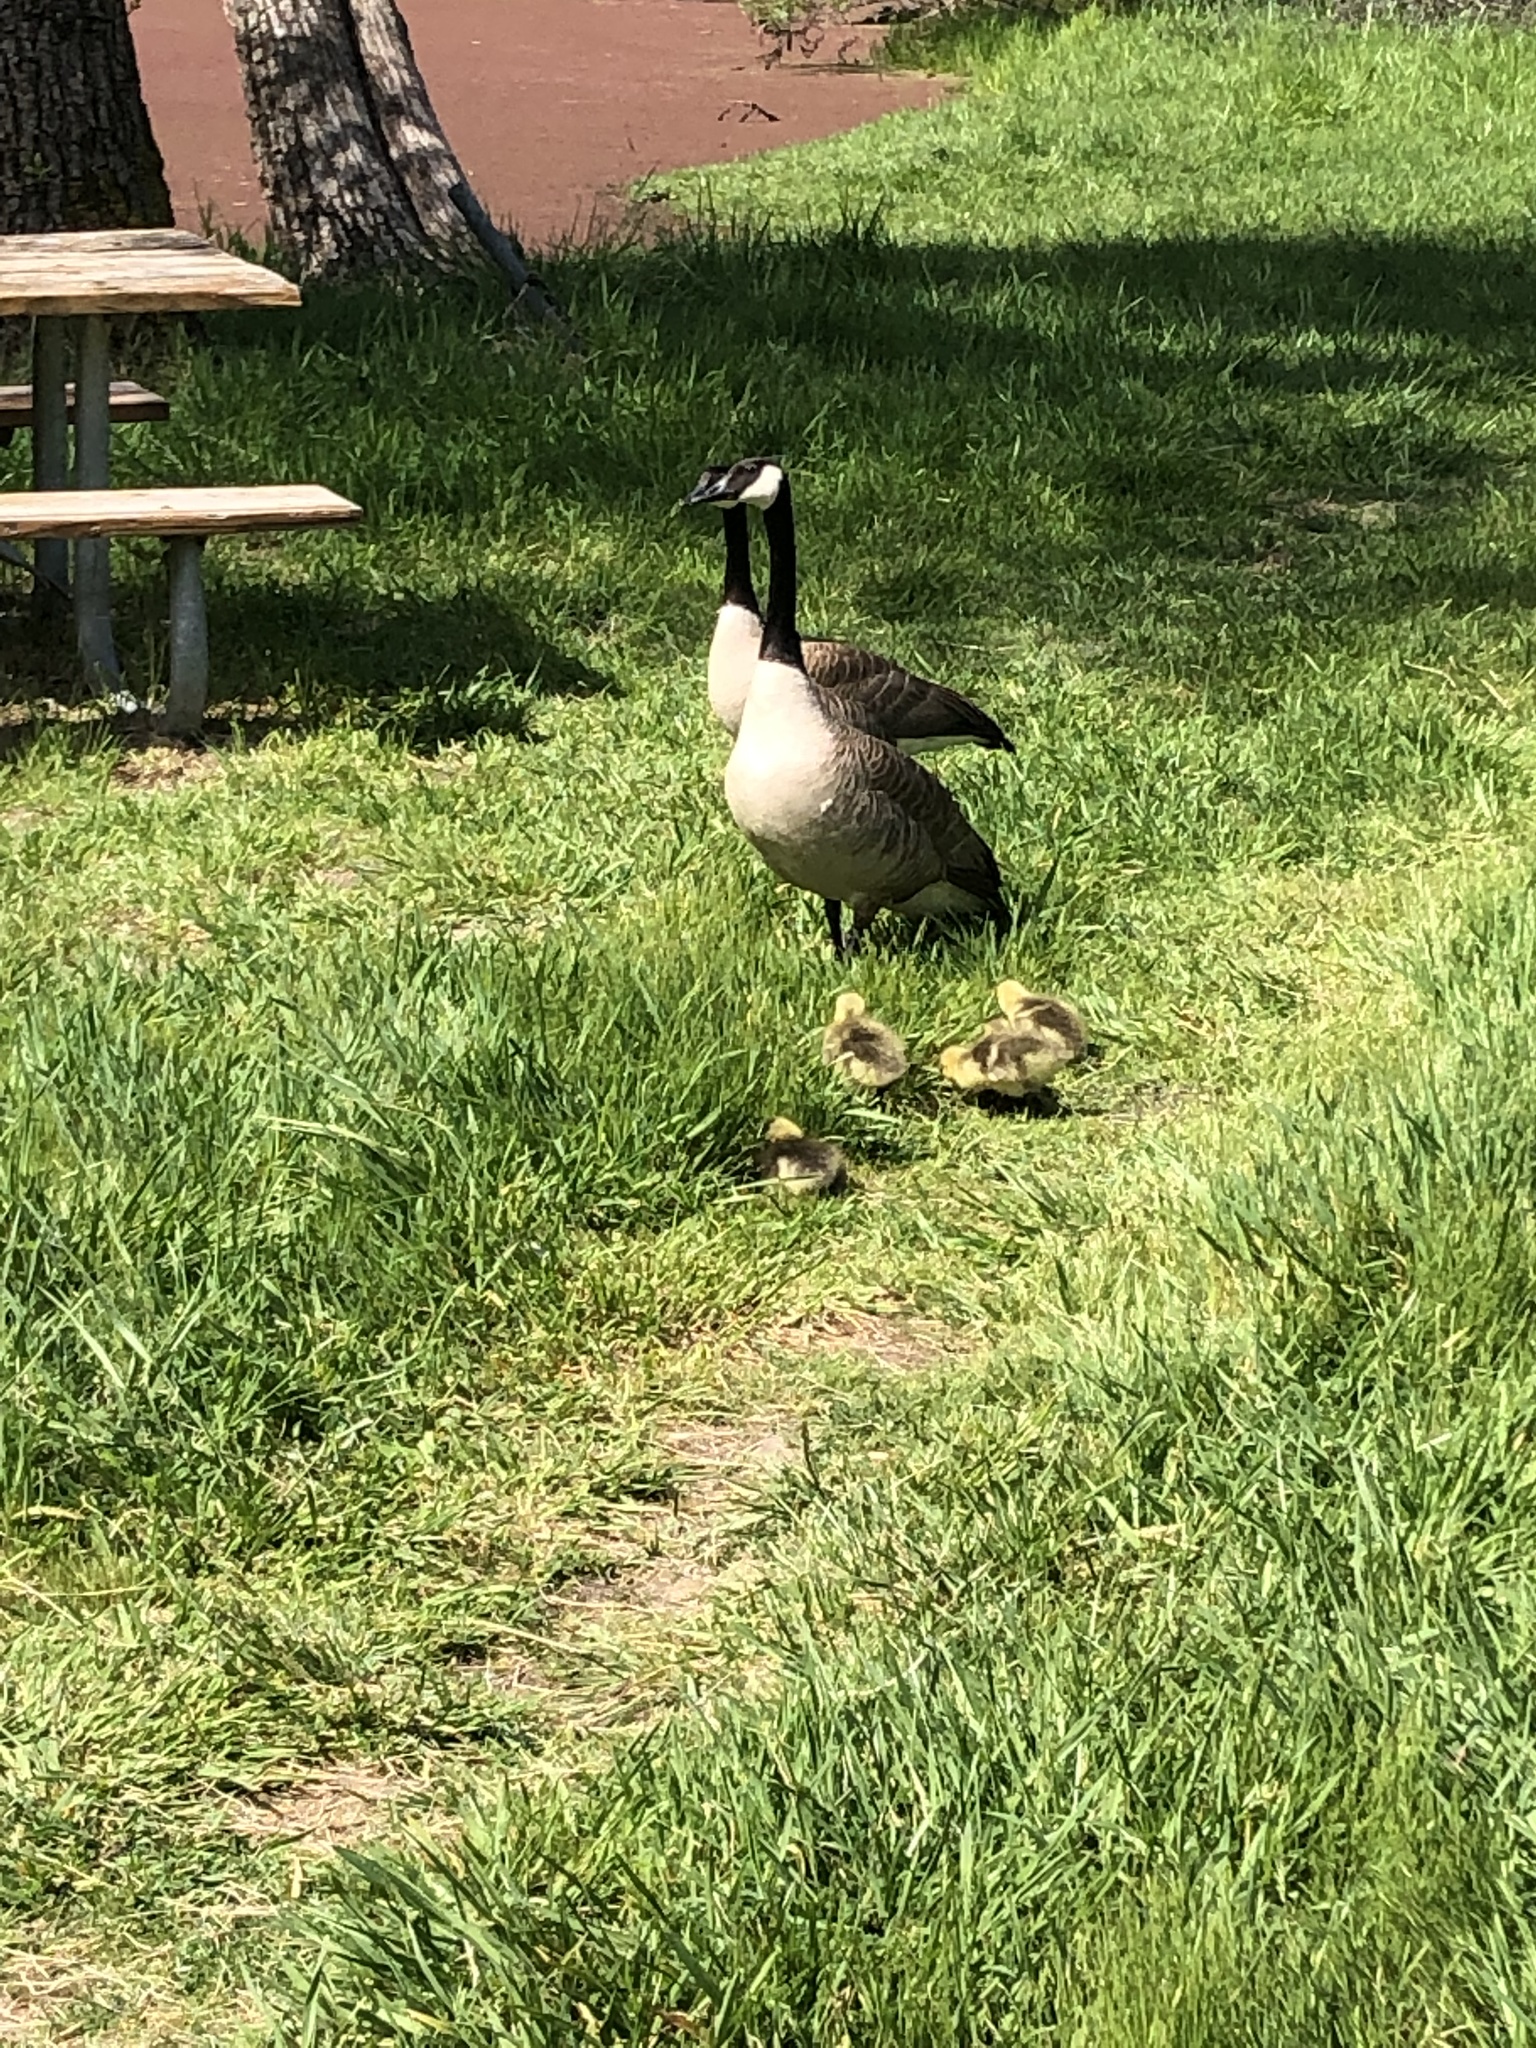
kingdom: Animalia
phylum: Chordata
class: Aves
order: Anseriformes
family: Anatidae
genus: Branta
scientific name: Branta canadensis
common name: Canada goose
